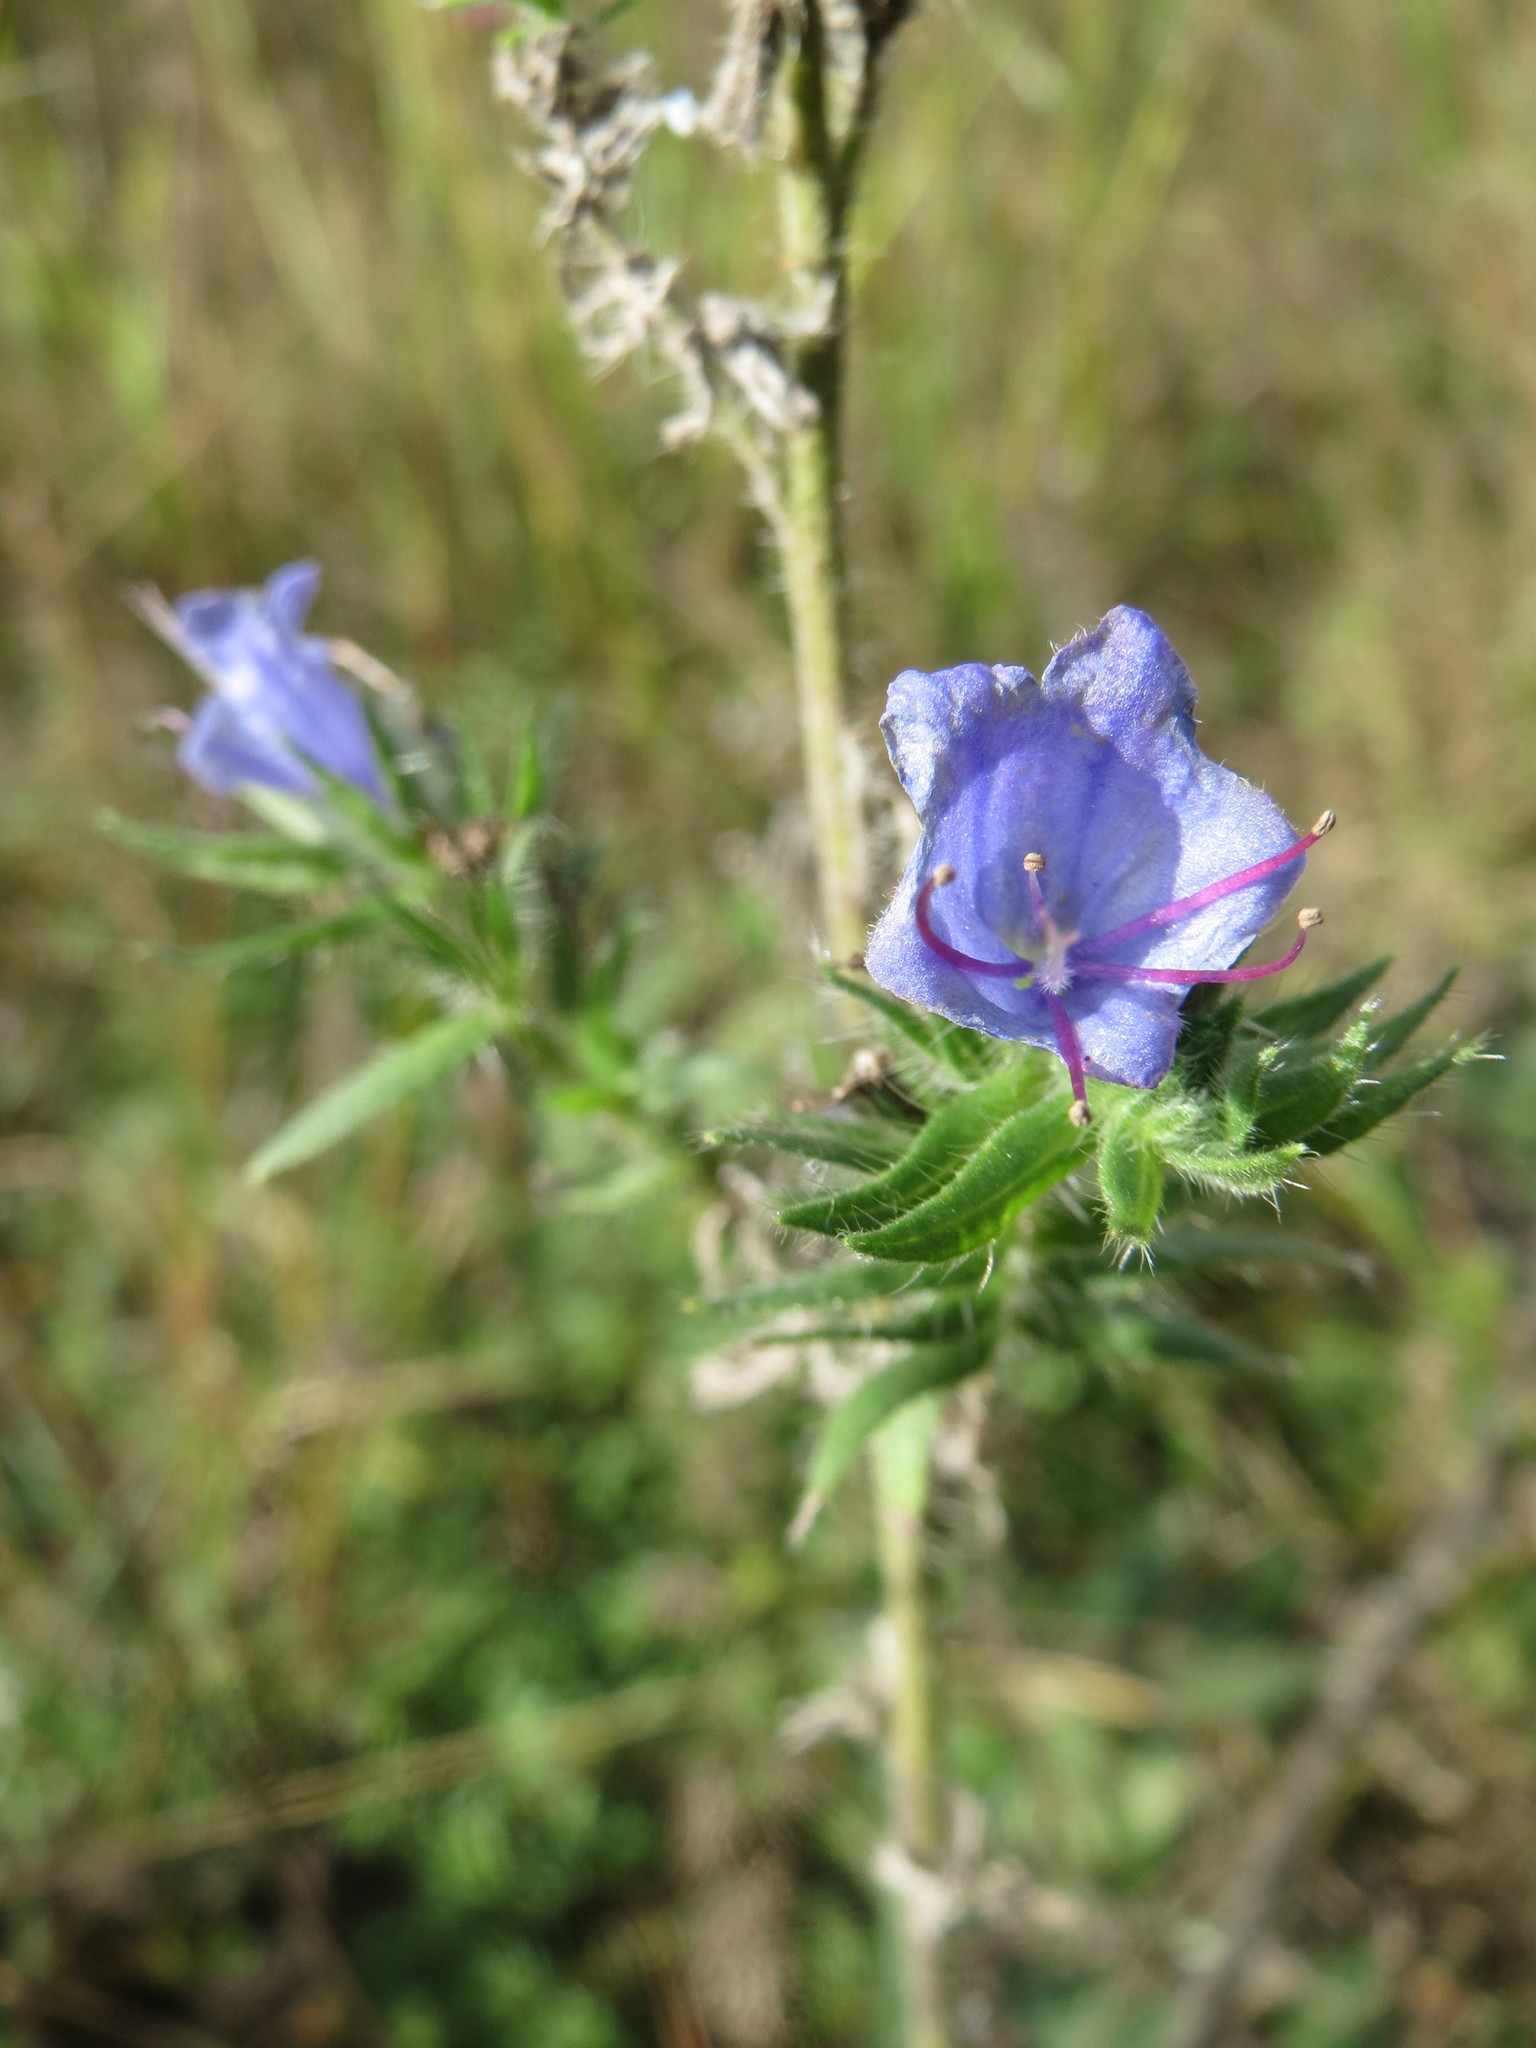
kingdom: Plantae
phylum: Tracheophyta
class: Magnoliopsida
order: Boraginales
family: Boraginaceae
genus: Echium
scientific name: Echium vulgare
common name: Common viper's bugloss
